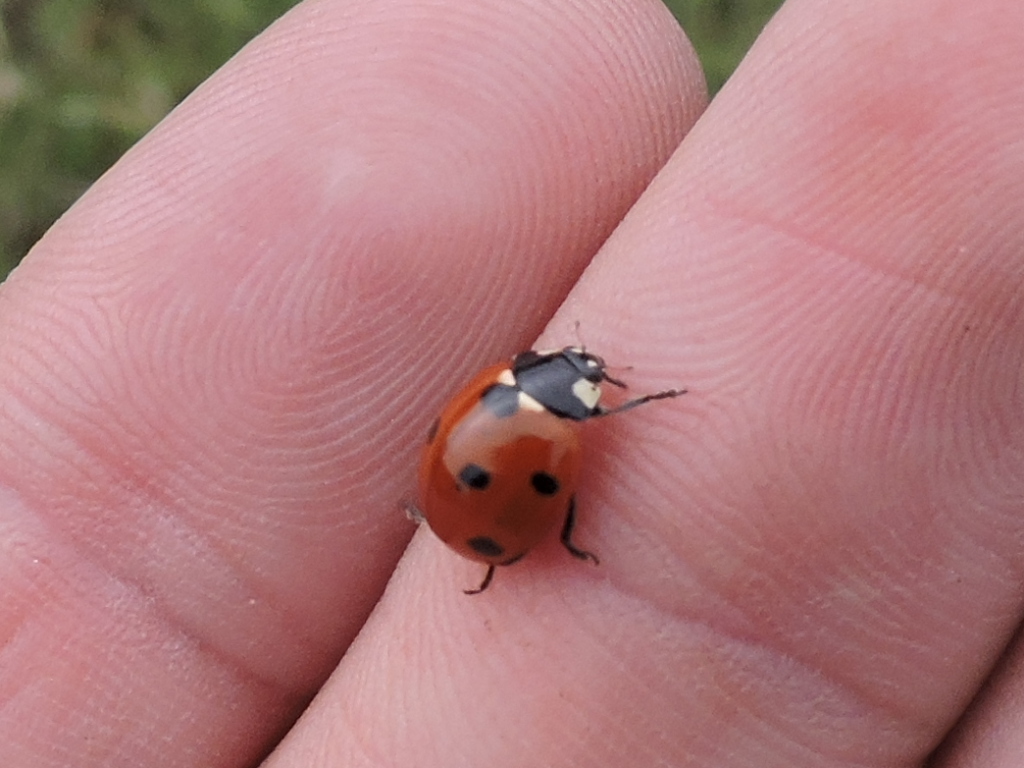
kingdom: Animalia
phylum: Arthropoda
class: Insecta
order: Coleoptera
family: Coccinellidae
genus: Coccinella
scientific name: Coccinella septempunctata
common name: Sevenspotted lady beetle
